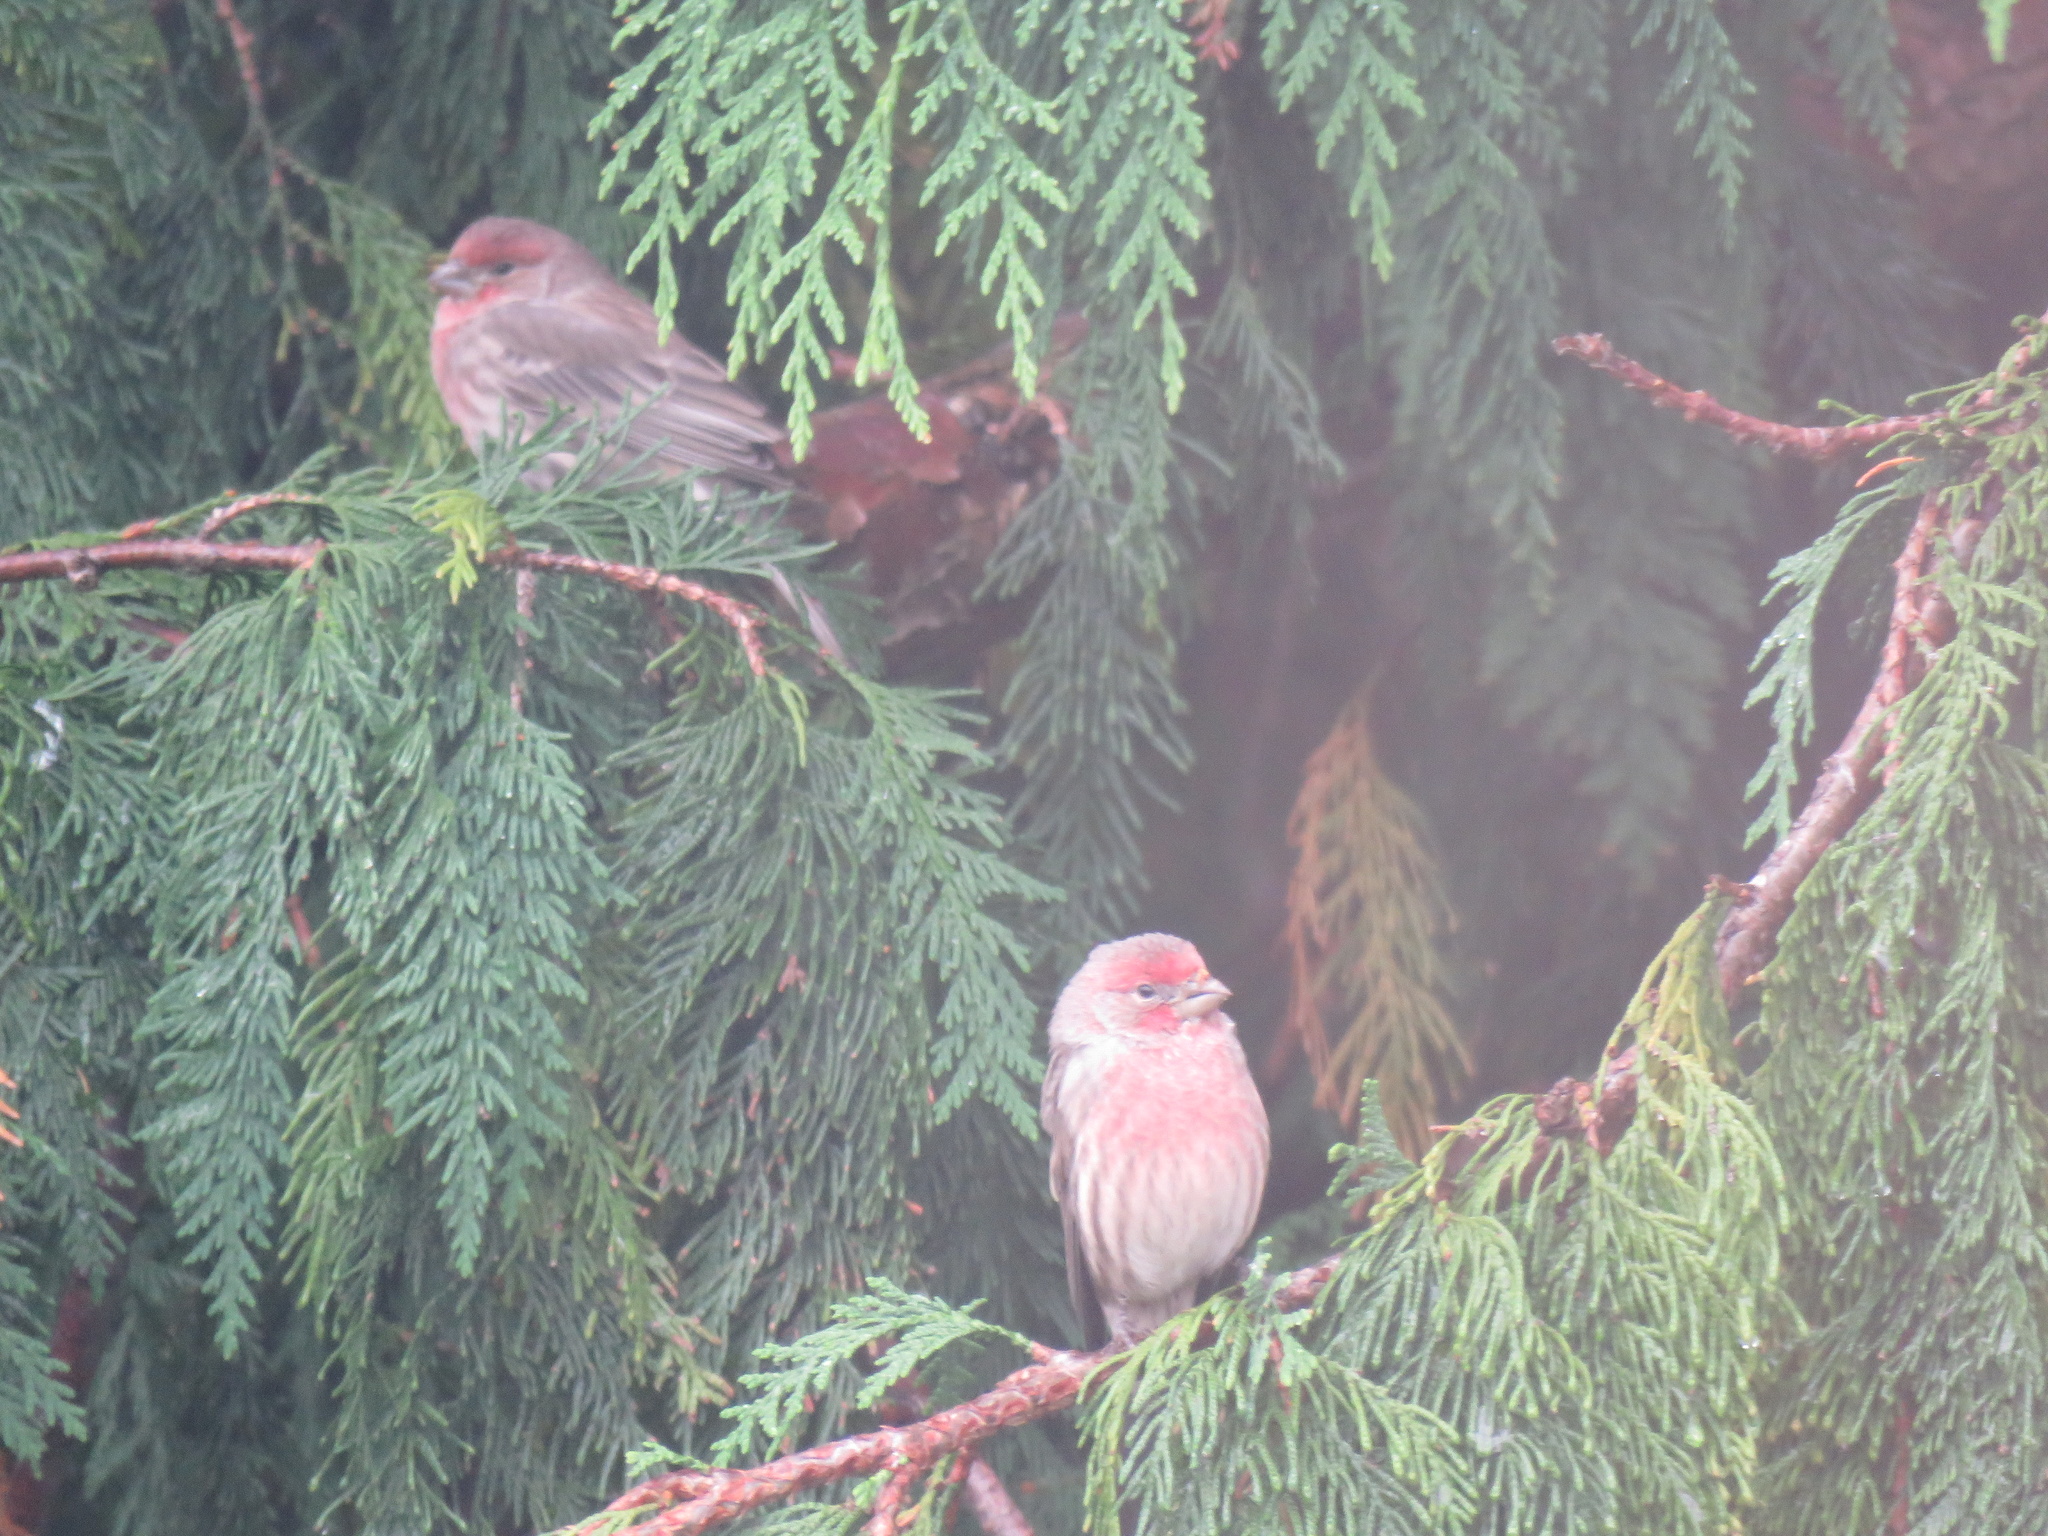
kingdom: Animalia
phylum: Chordata
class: Aves
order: Passeriformes
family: Fringillidae
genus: Haemorhous
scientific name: Haemorhous mexicanus
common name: House finch
